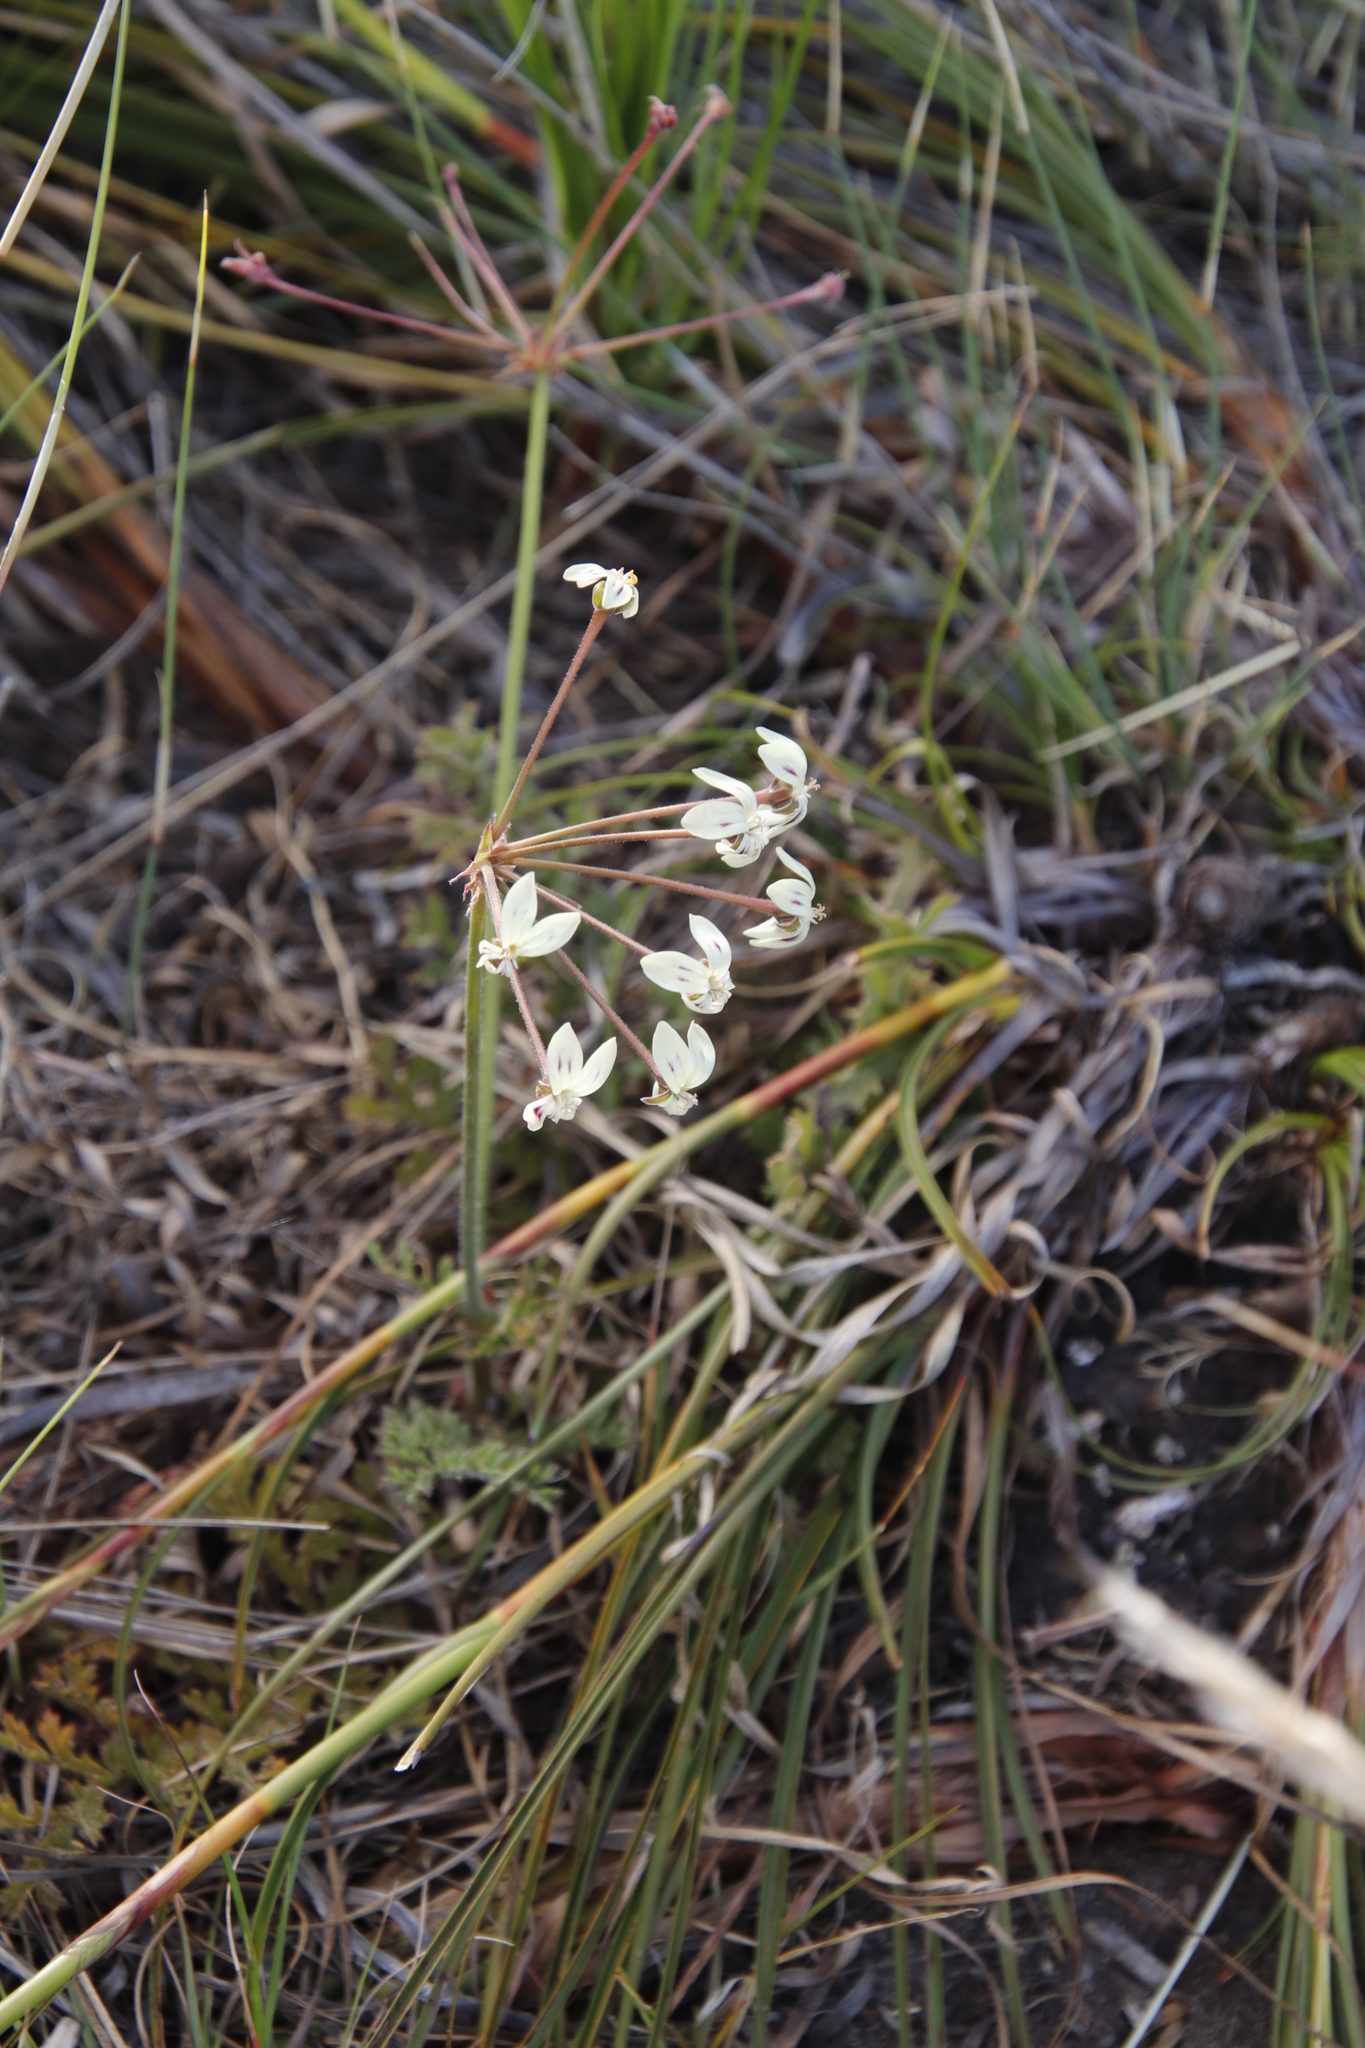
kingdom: Plantae
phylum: Tracheophyta
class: Magnoliopsida
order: Geraniales
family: Geraniaceae
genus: Pelargonium
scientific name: Pelargonium triste
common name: Night-scent pelargonium
